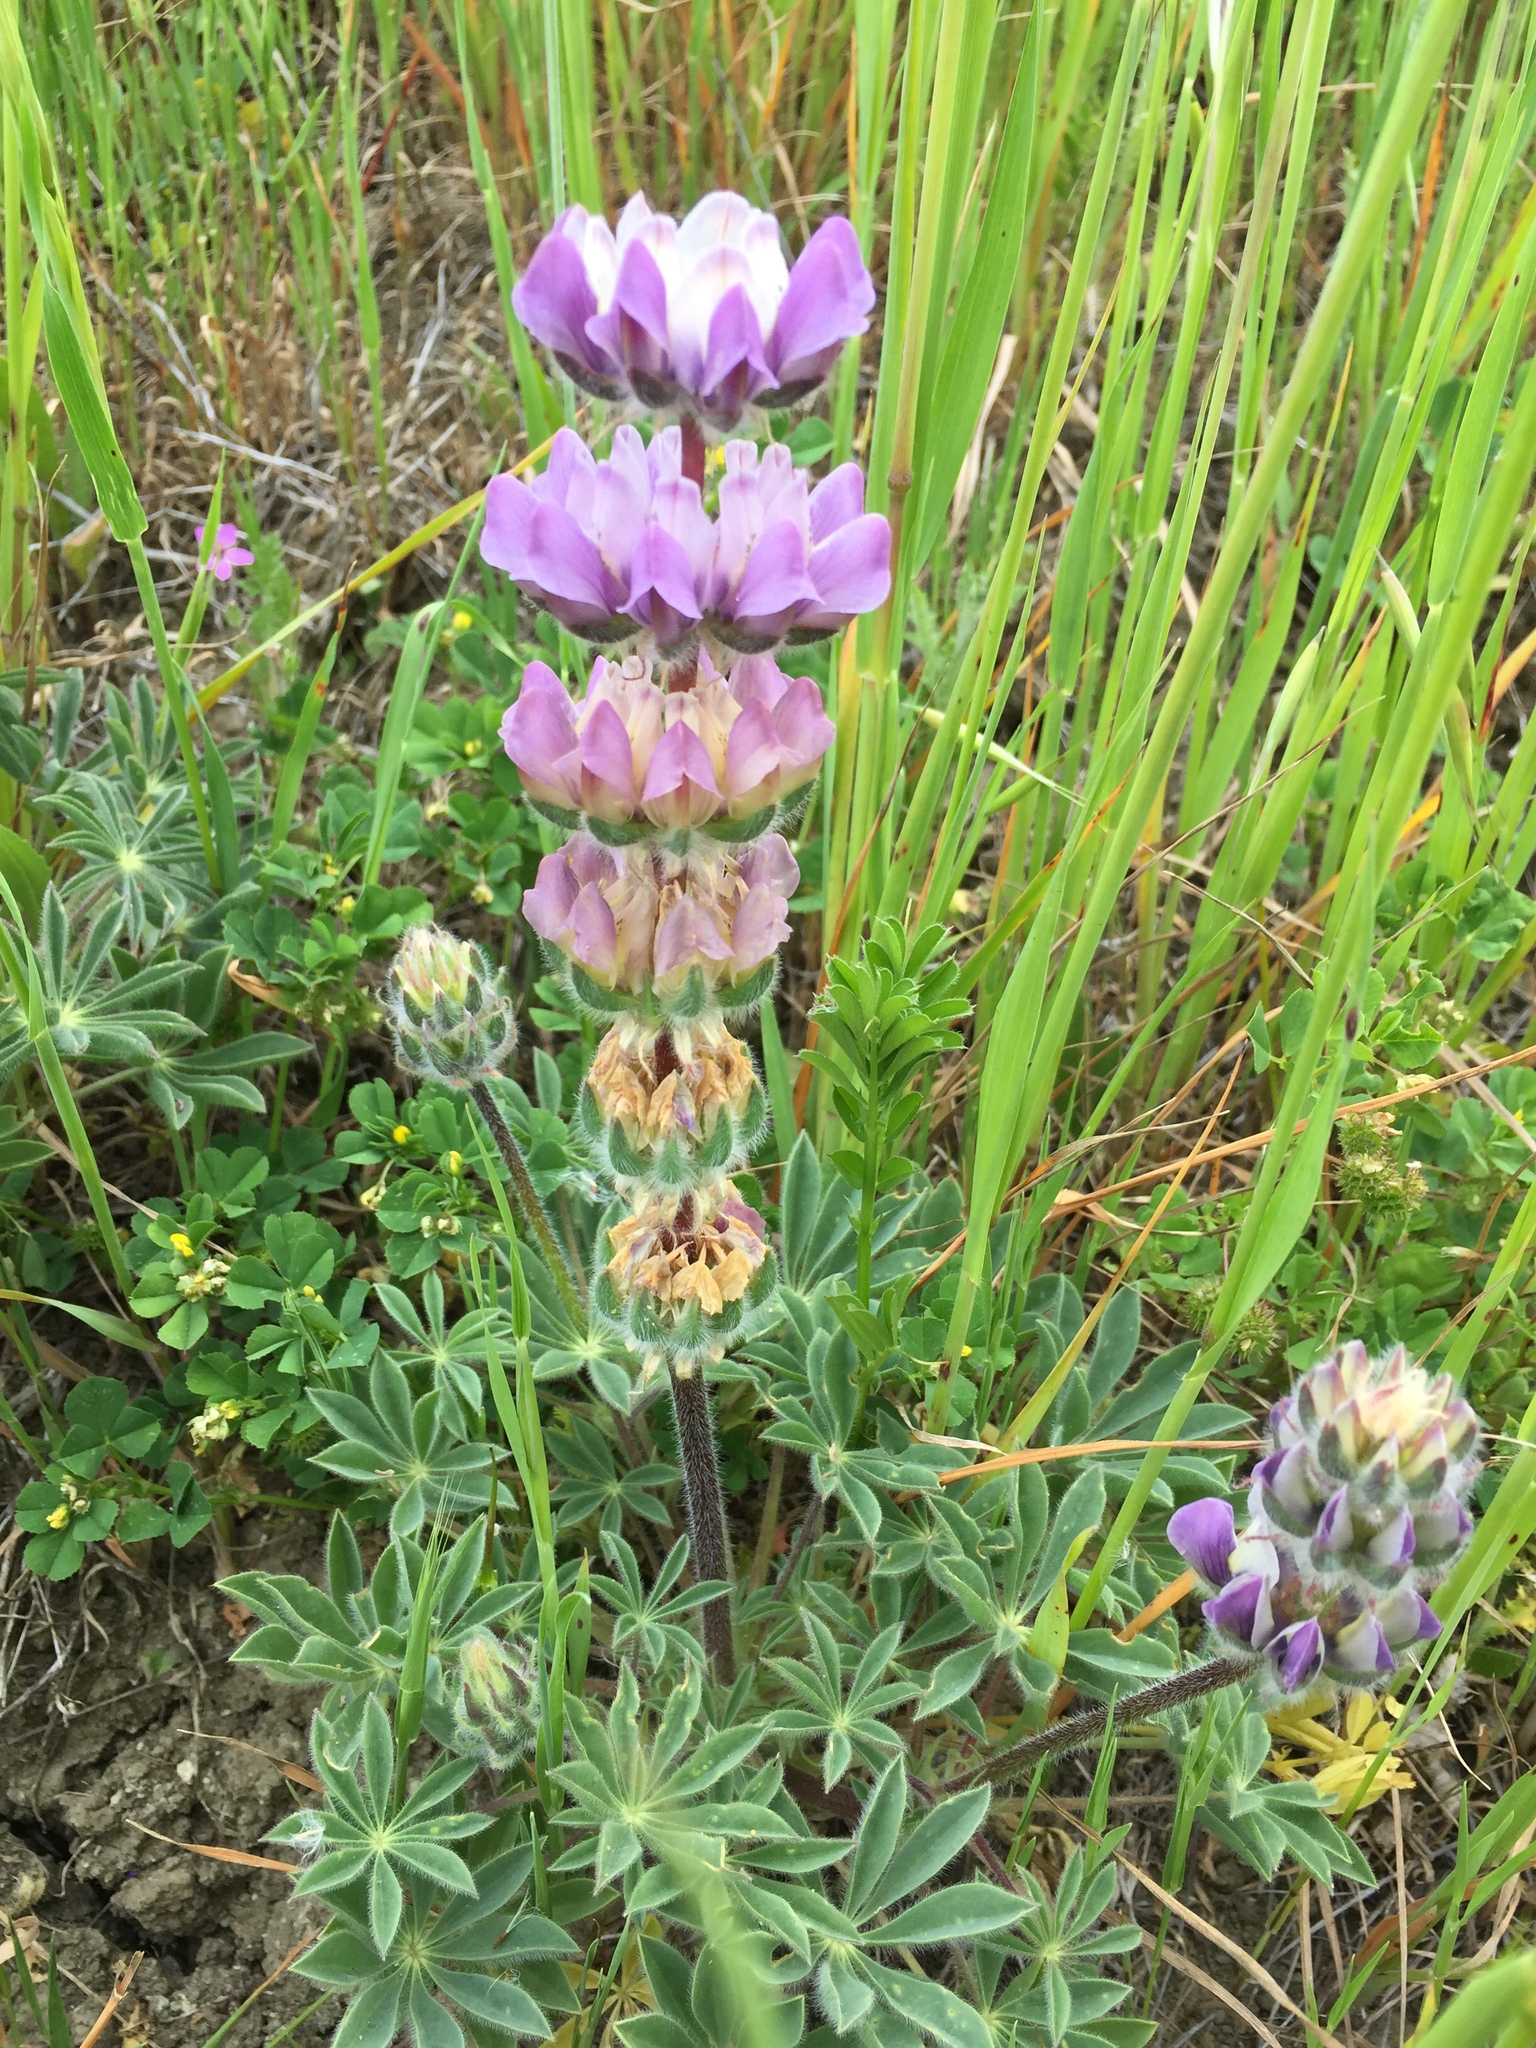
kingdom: Plantae
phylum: Tracheophyta
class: Magnoliopsida
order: Fabales
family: Fabaceae
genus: Lupinus
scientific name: Lupinus microcarpus
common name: Chick lupine
